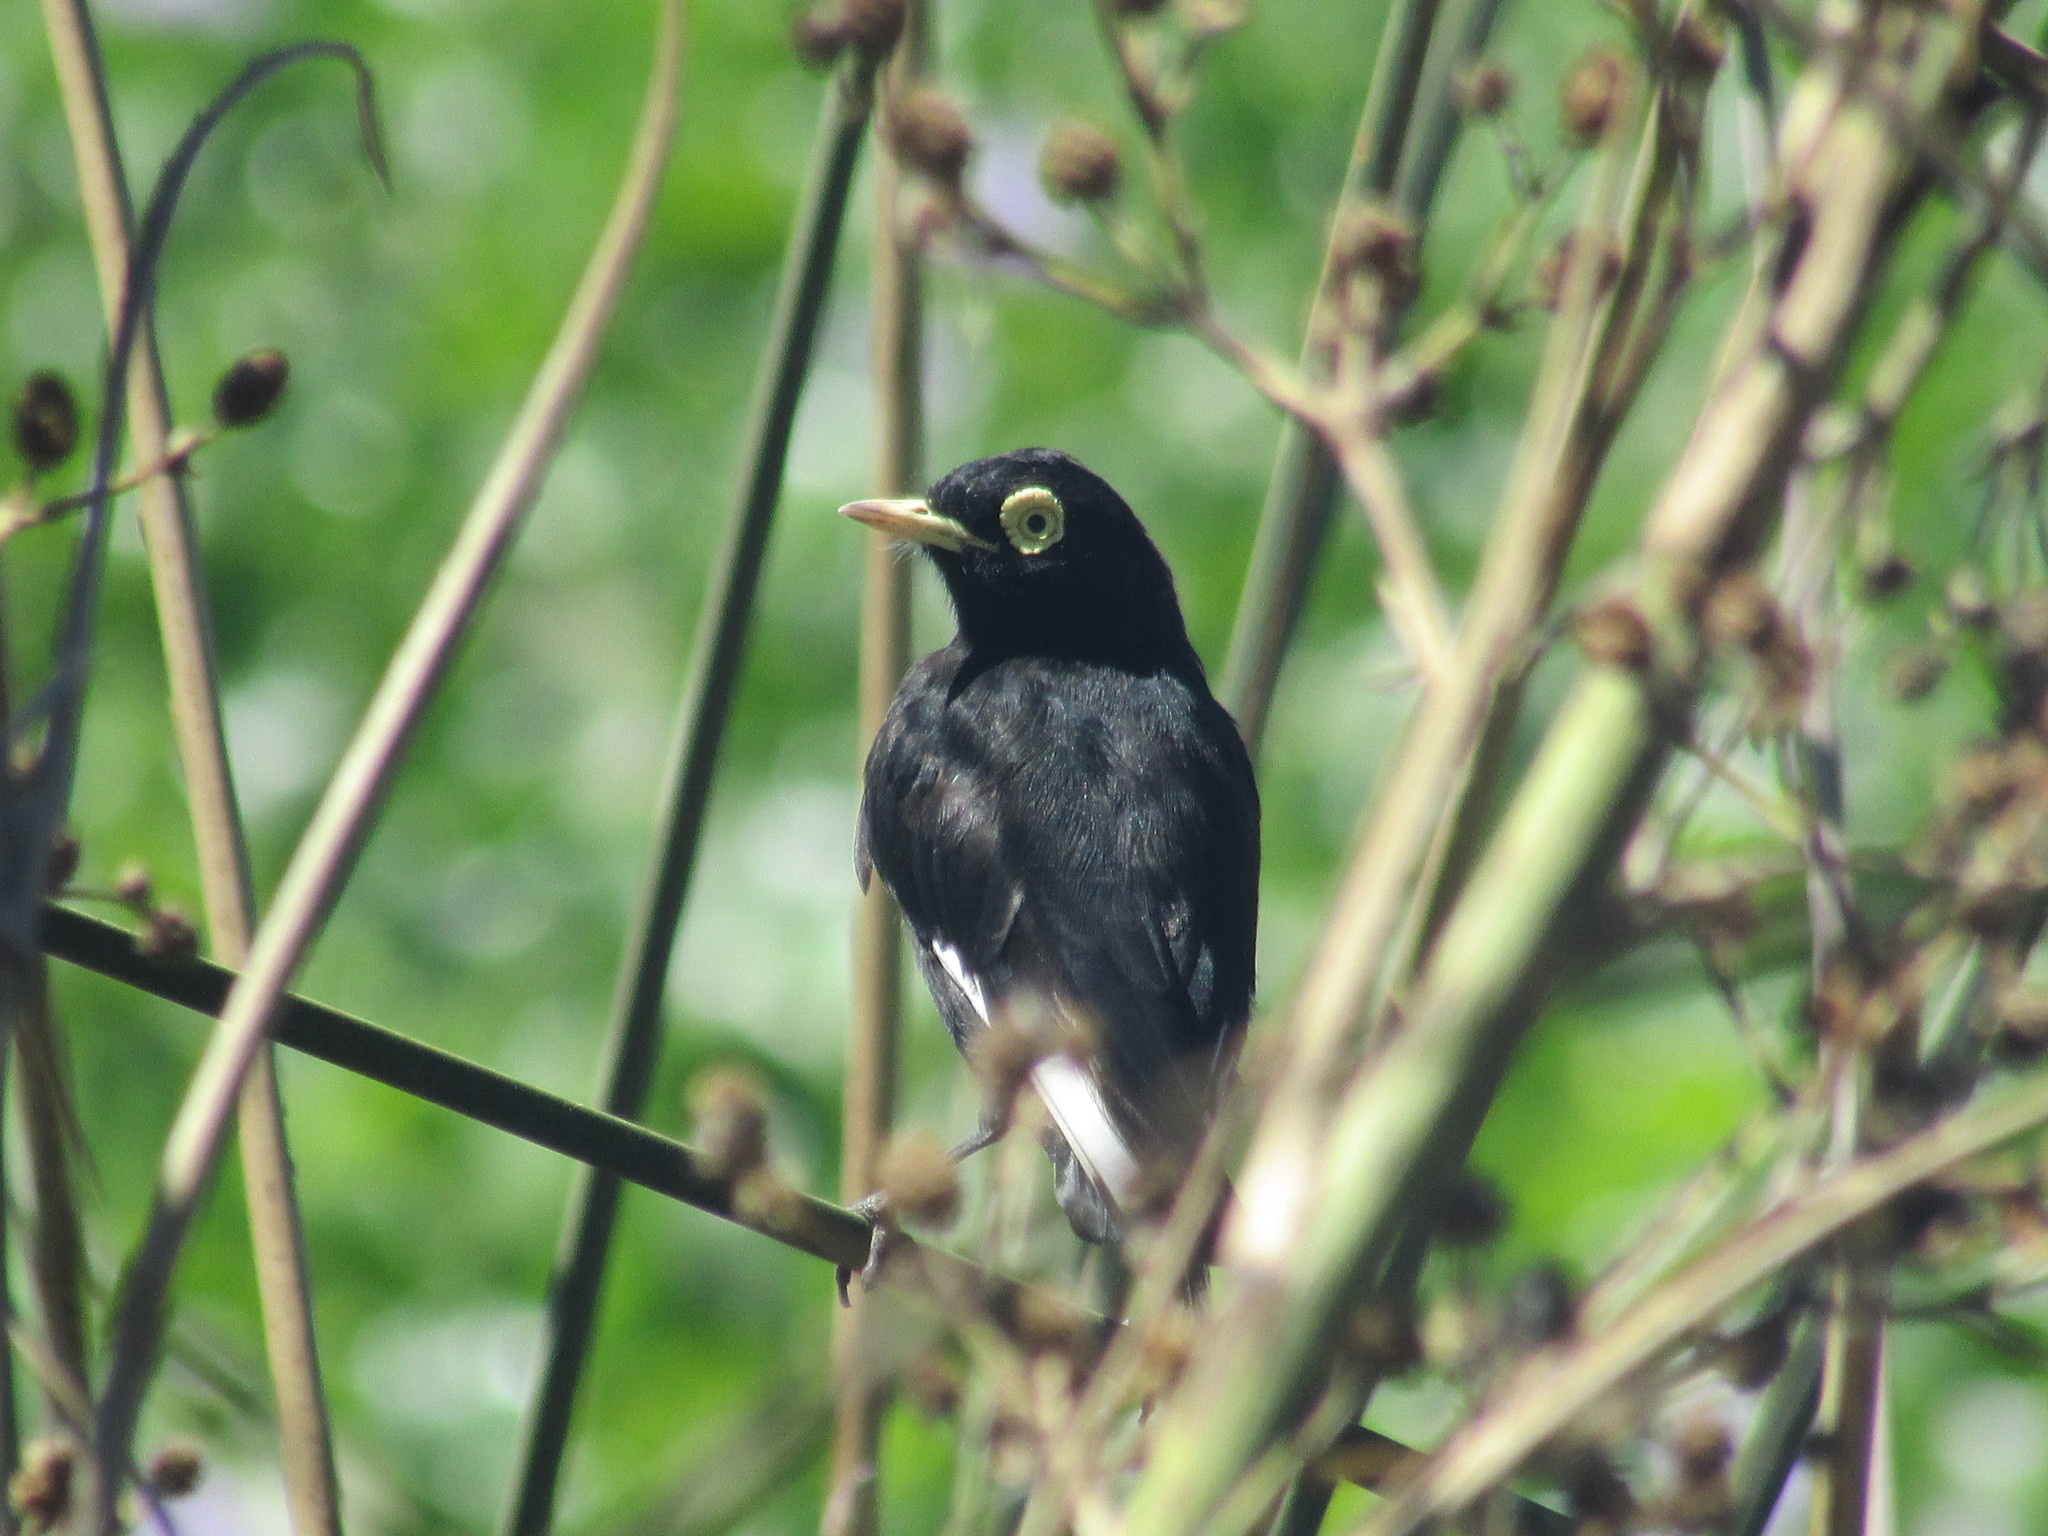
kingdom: Animalia
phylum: Chordata
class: Aves
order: Passeriformes
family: Tyrannidae
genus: Hymenops
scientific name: Hymenops perspicillatus
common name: Spectacled tyrant
